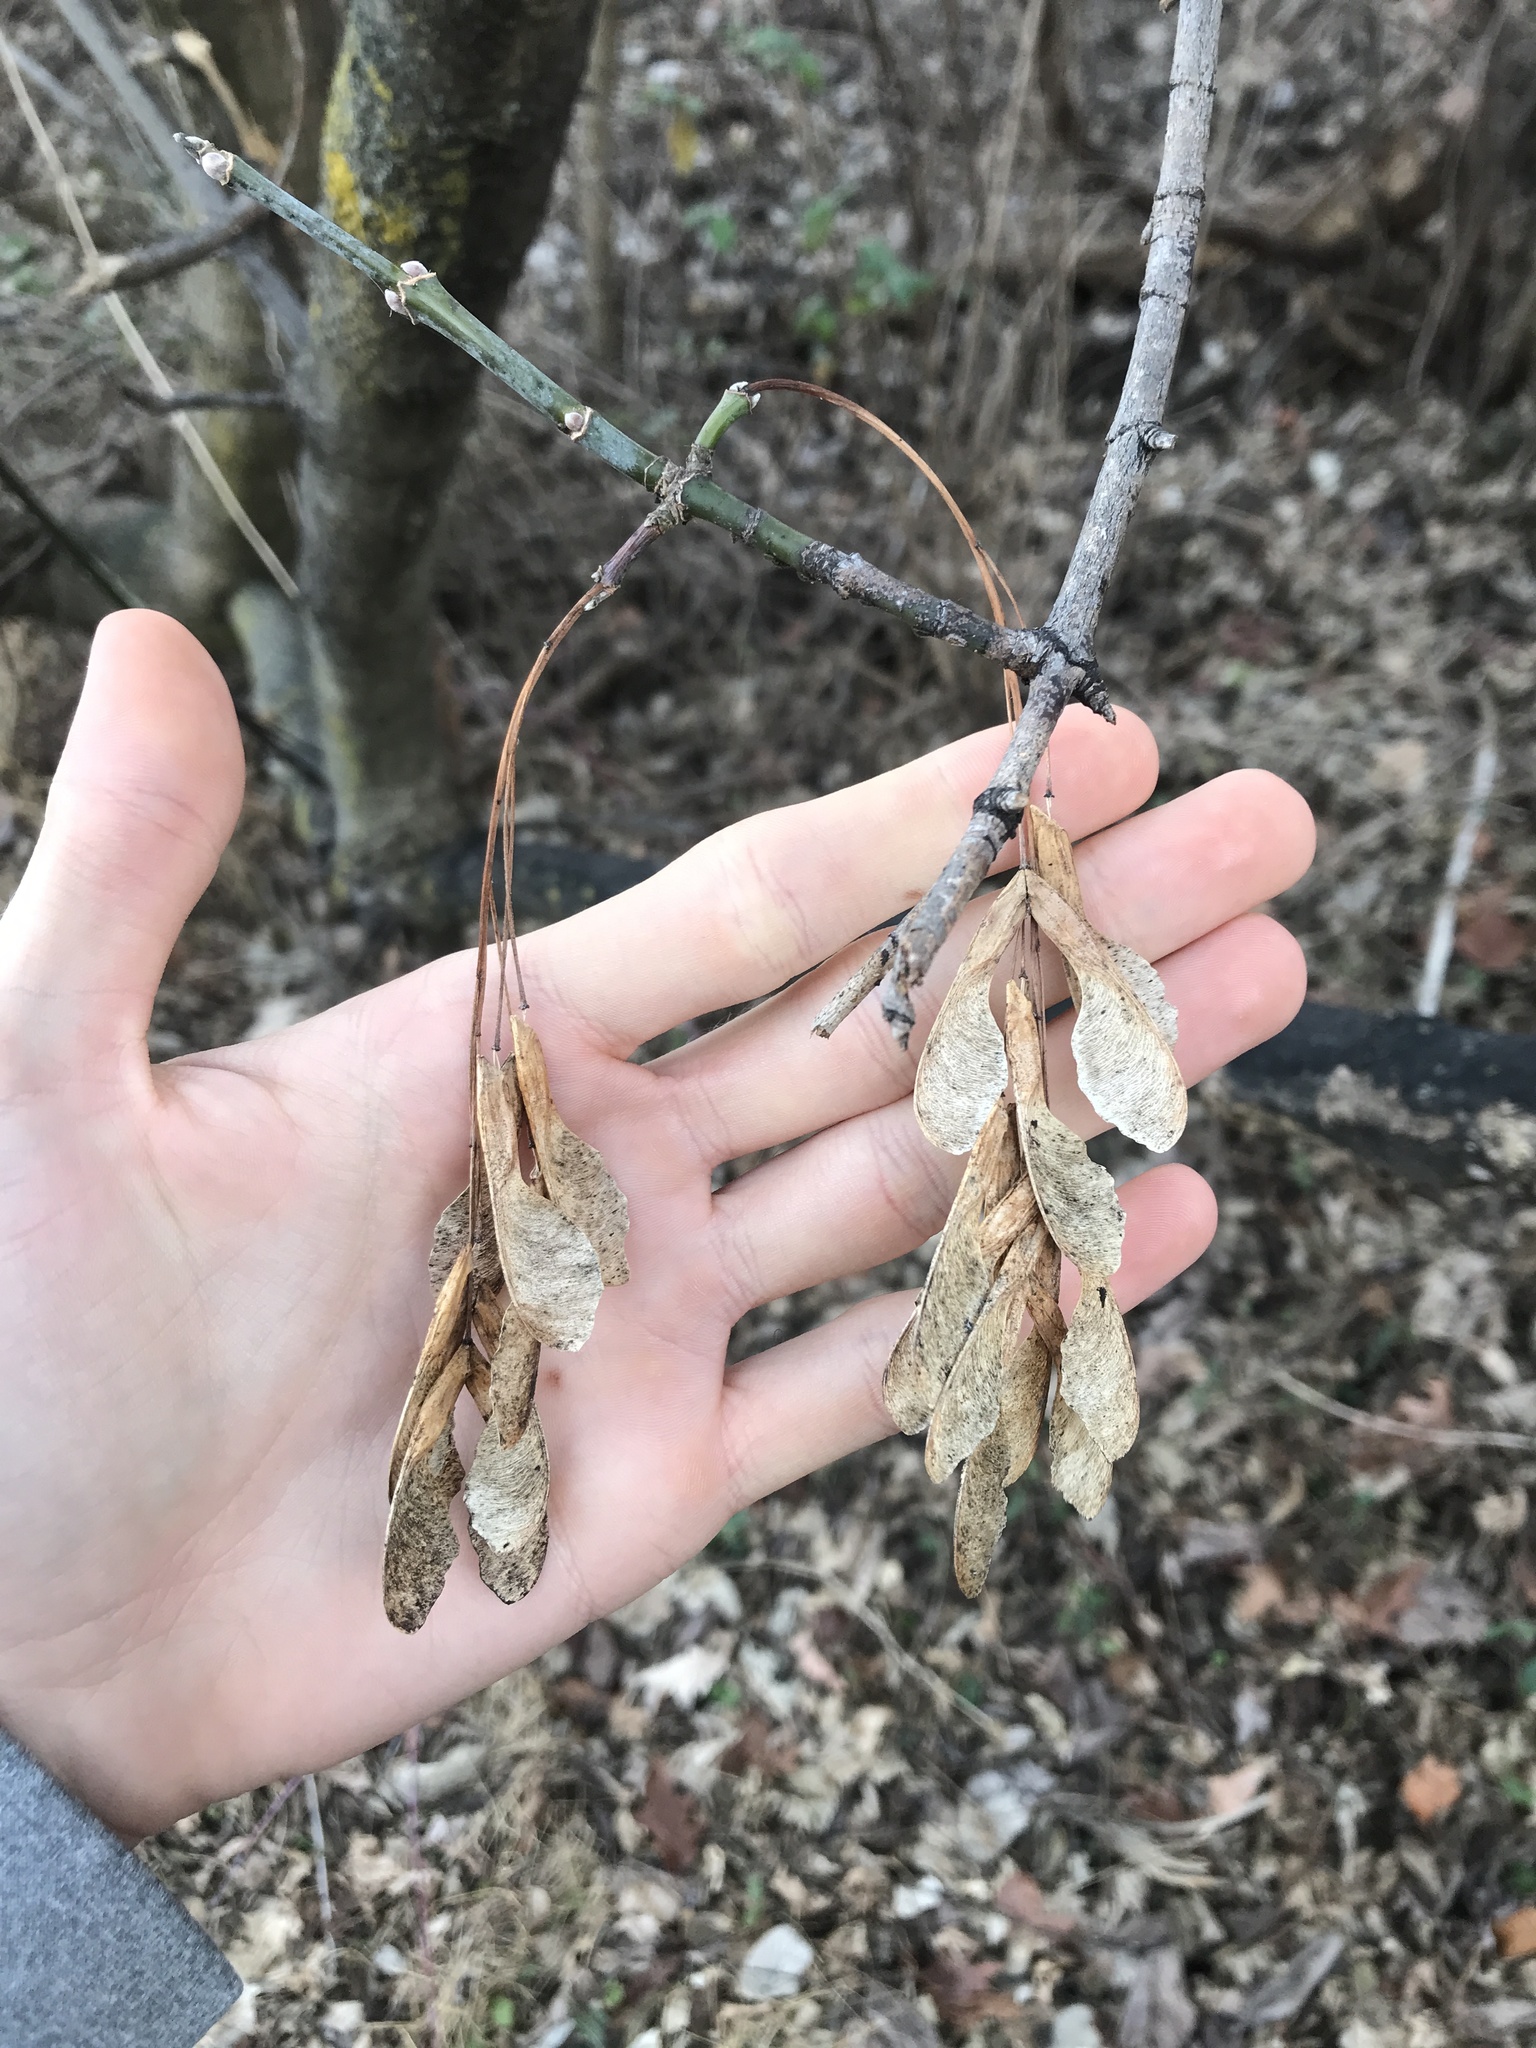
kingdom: Plantae
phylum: Tracheophyta
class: Magnoliopsida
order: Sapindales
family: Sapindaceae
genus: Acer
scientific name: Acer negundo
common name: Ashleaf maple
